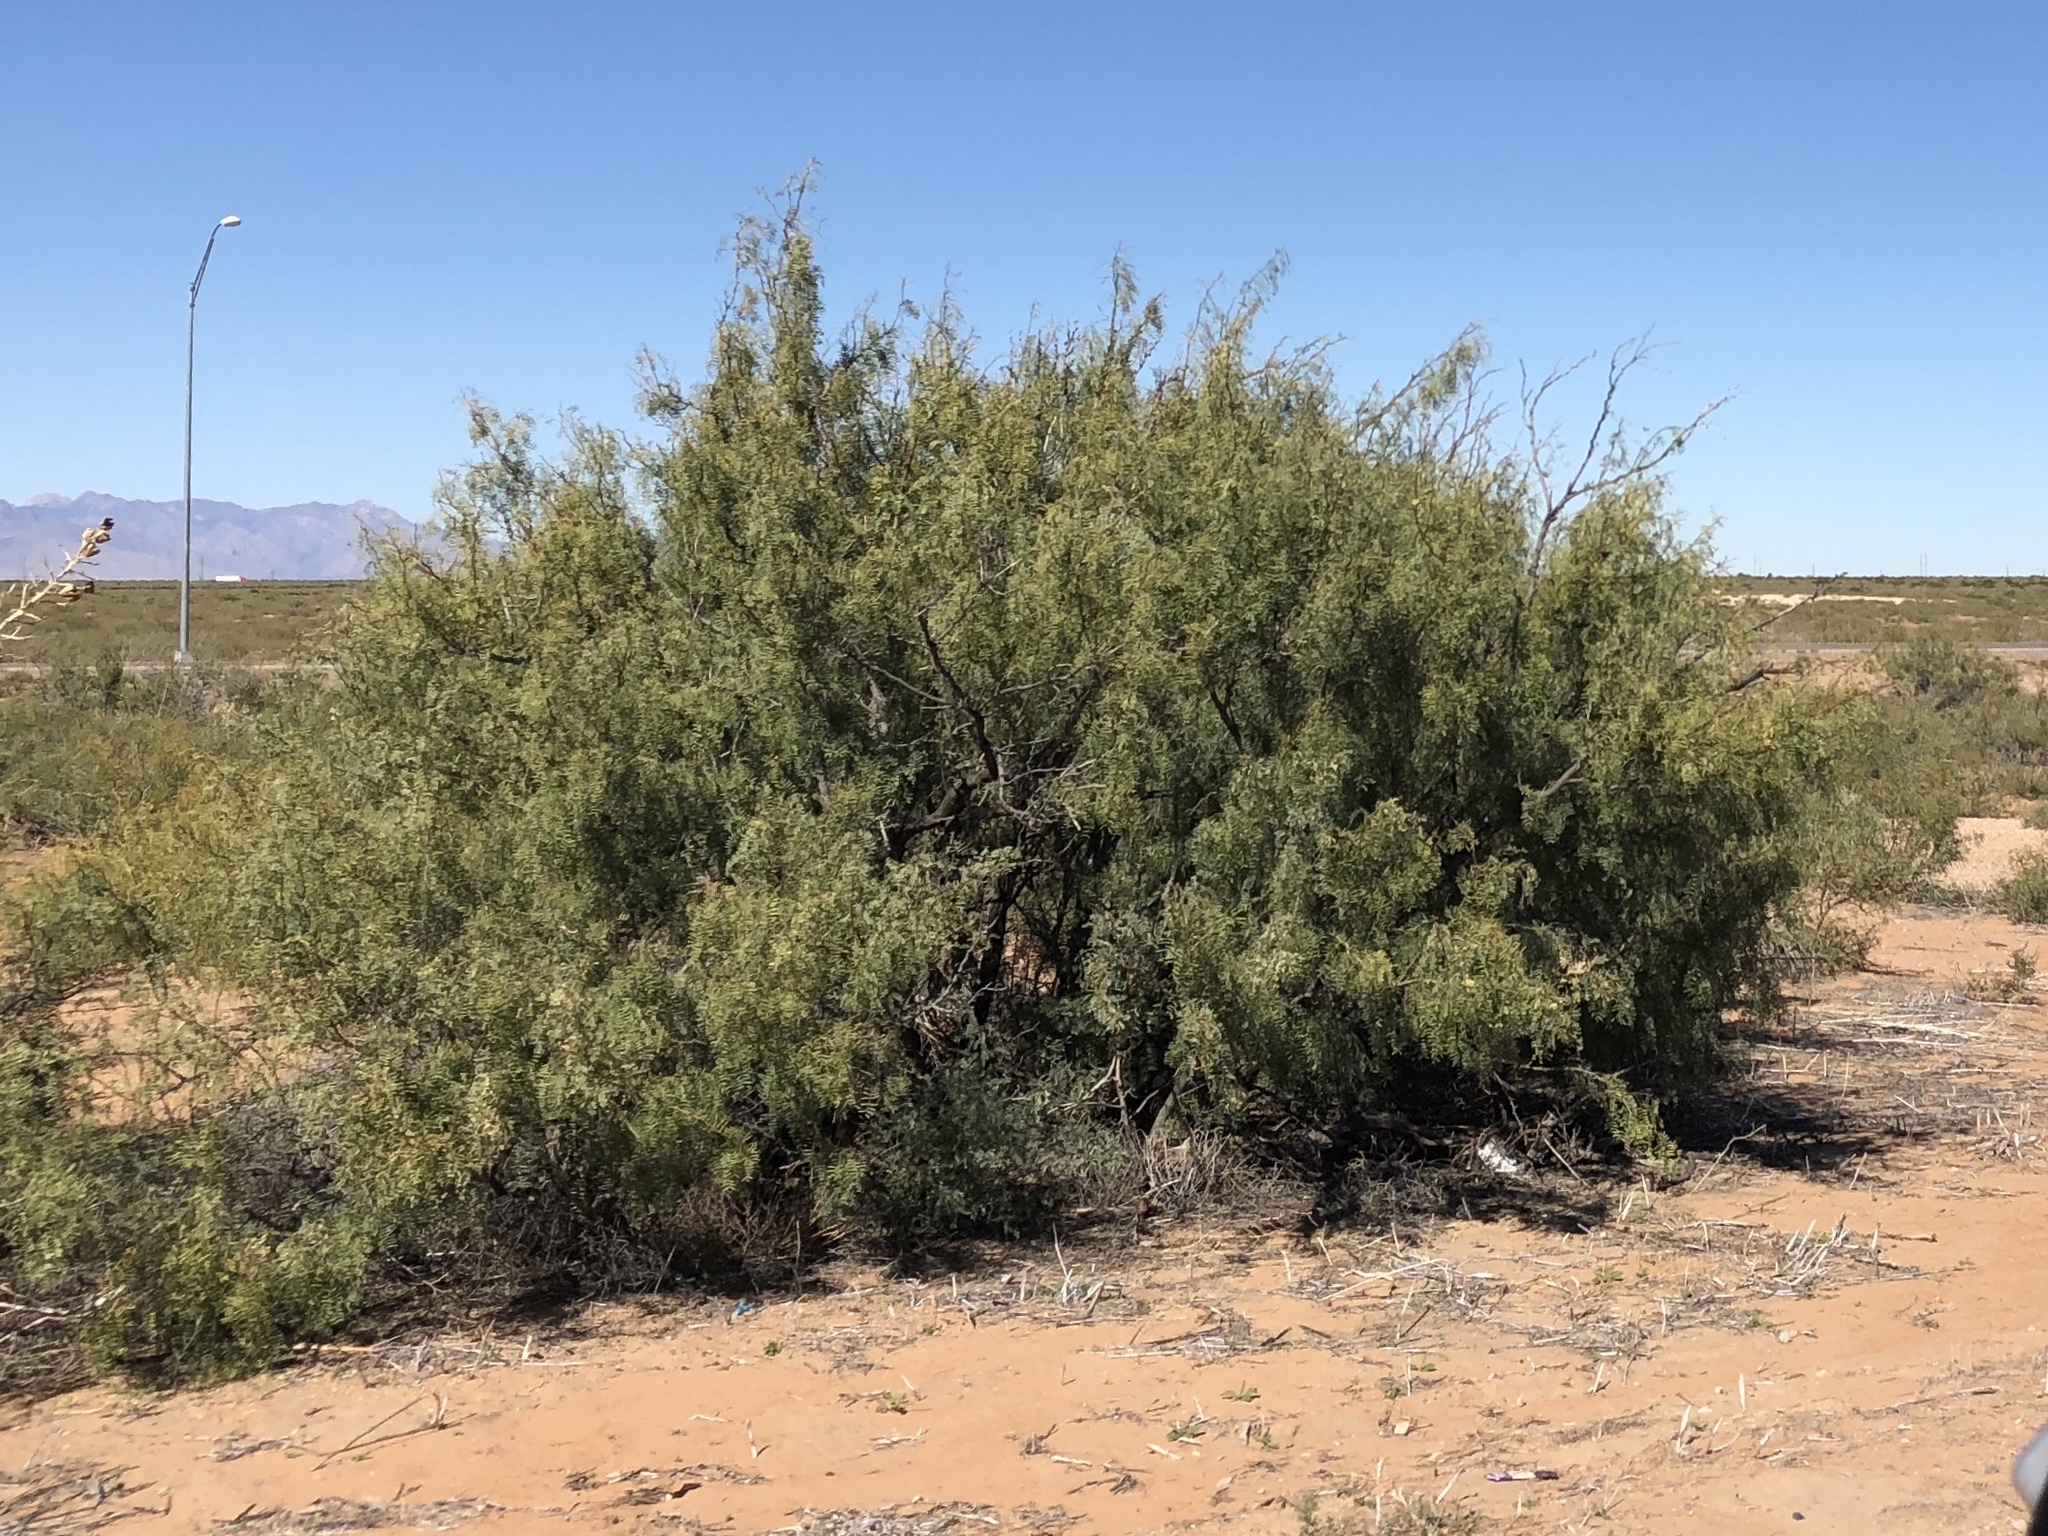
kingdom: Plantae
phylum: Tracheophyta
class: Magnoliopsida
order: Fabales
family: Fabaceae
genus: Prosopis
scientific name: Prosopis glandulosa
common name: Honey mesquite
